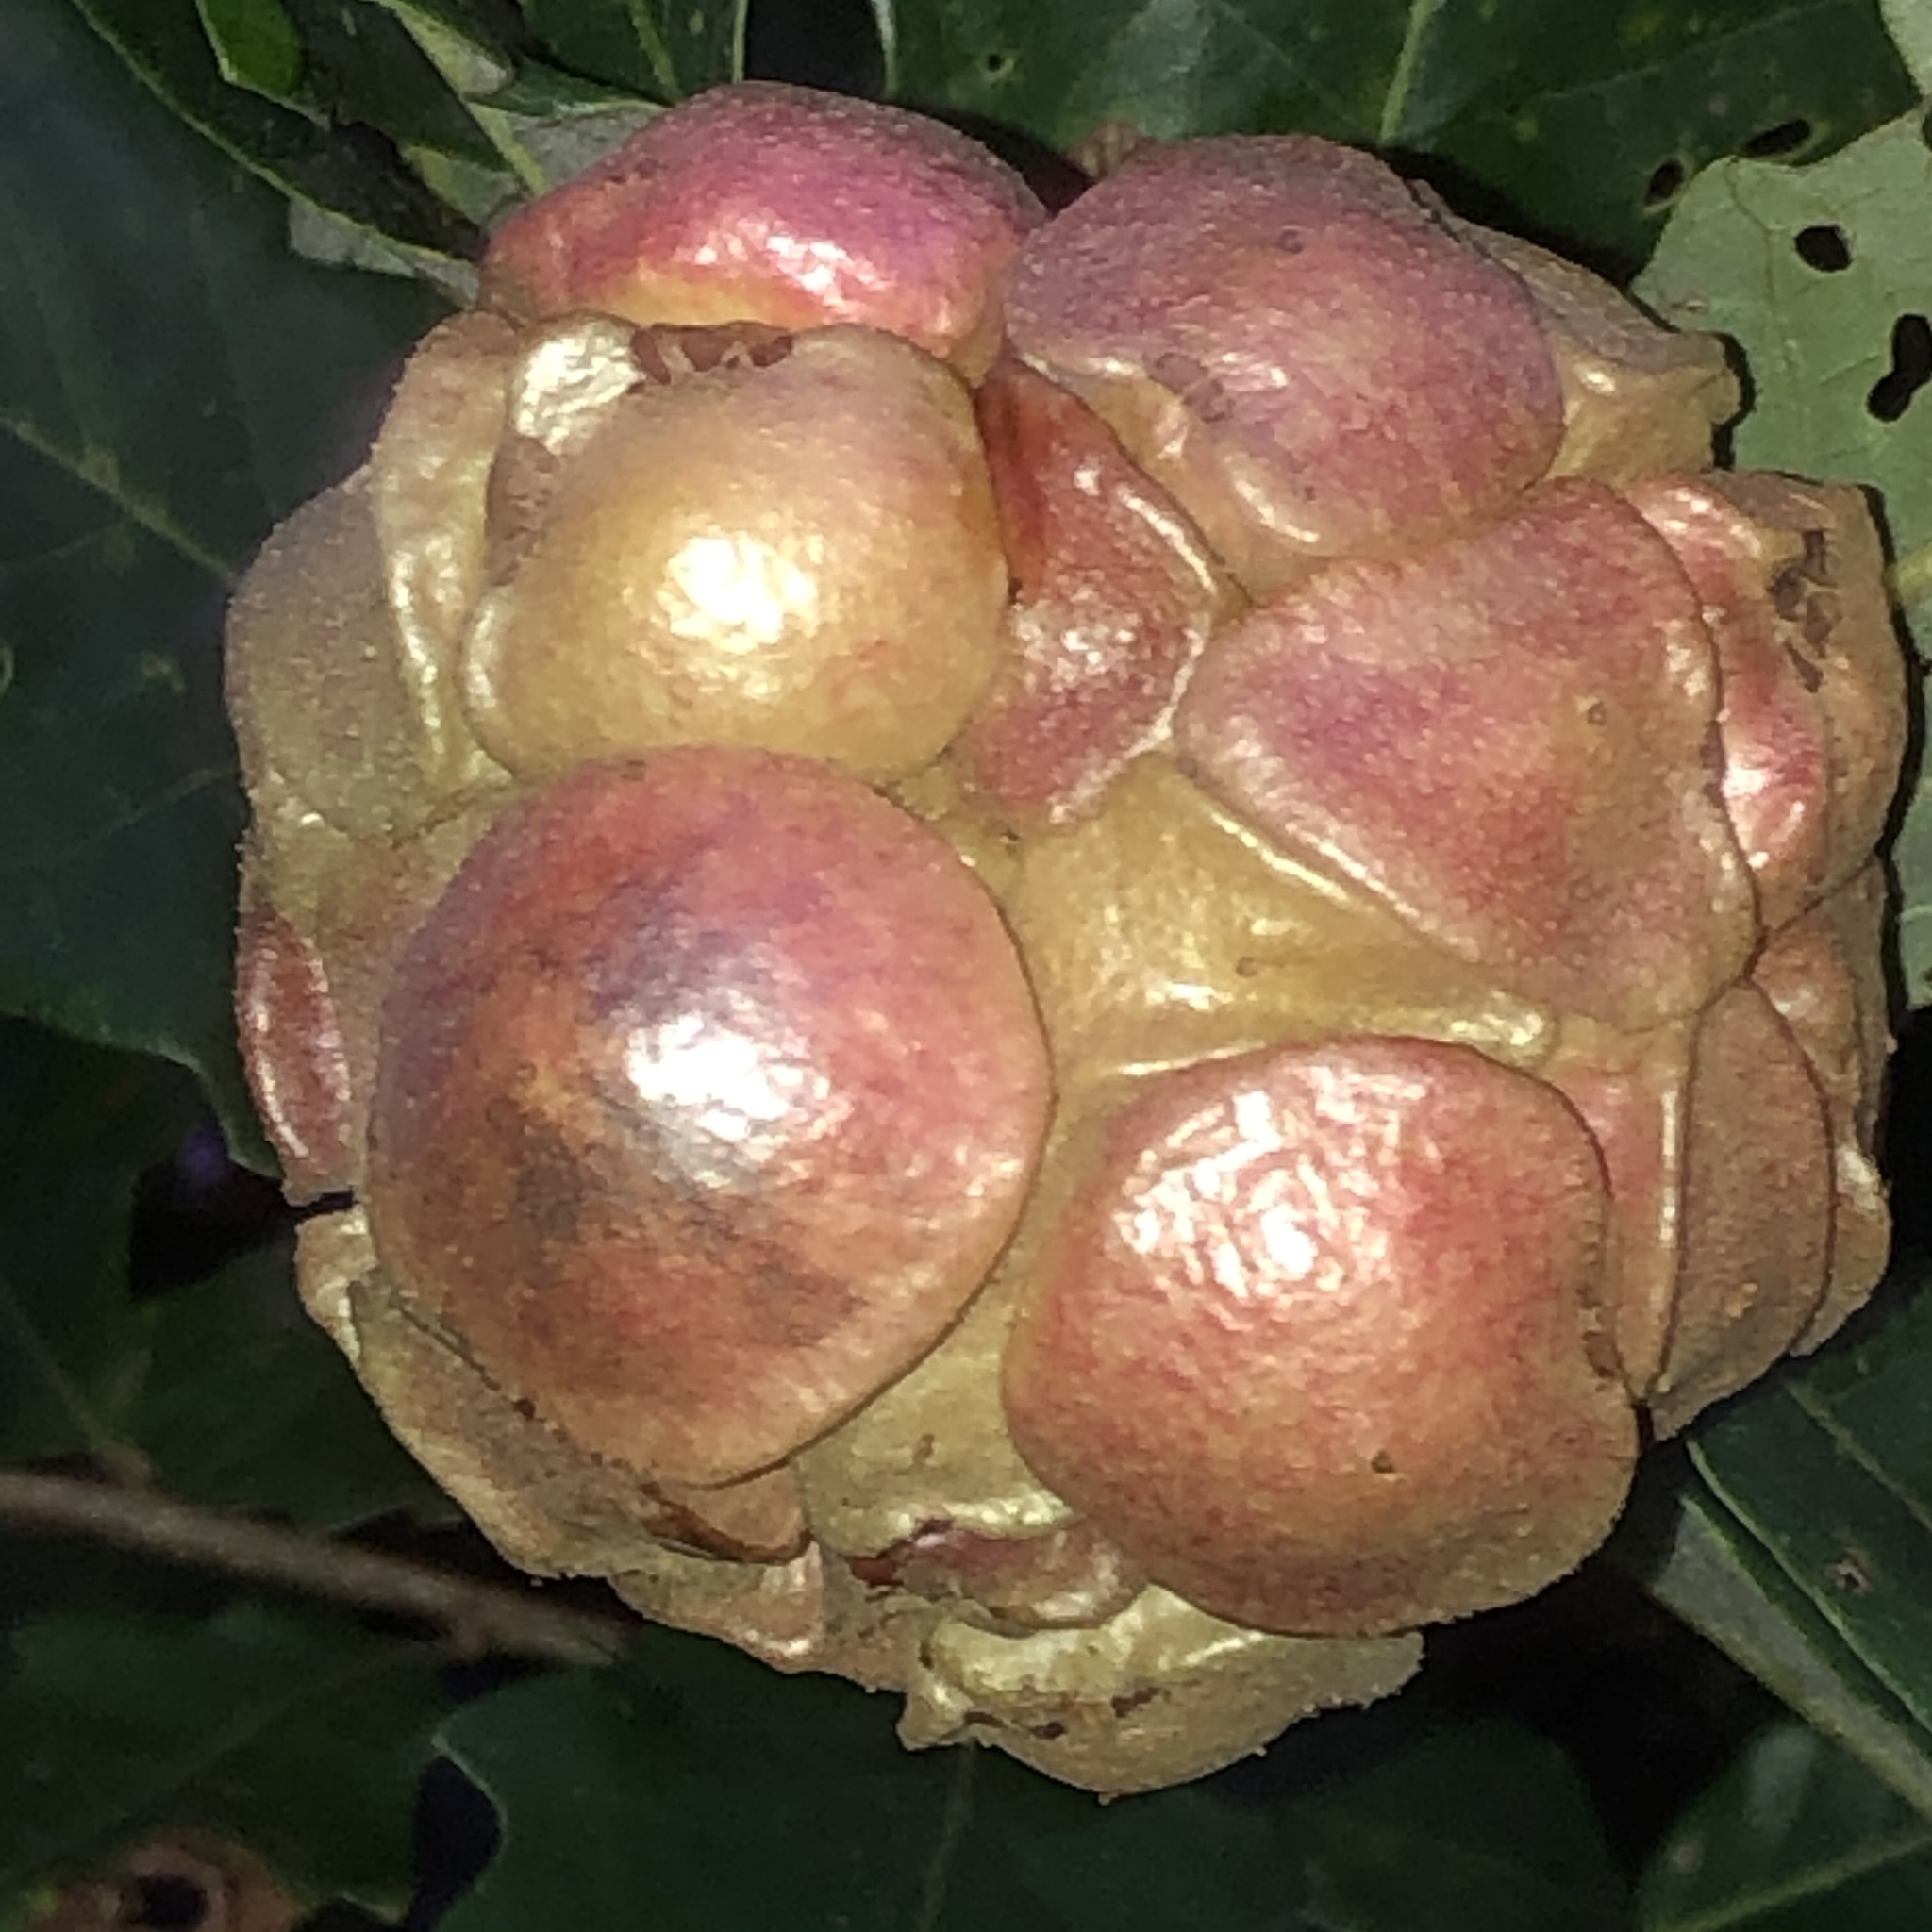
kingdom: Animalia
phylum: Arthropoda
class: Insecta
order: Hymenoptera
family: Cynipidae
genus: Andricus
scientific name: Andricus
